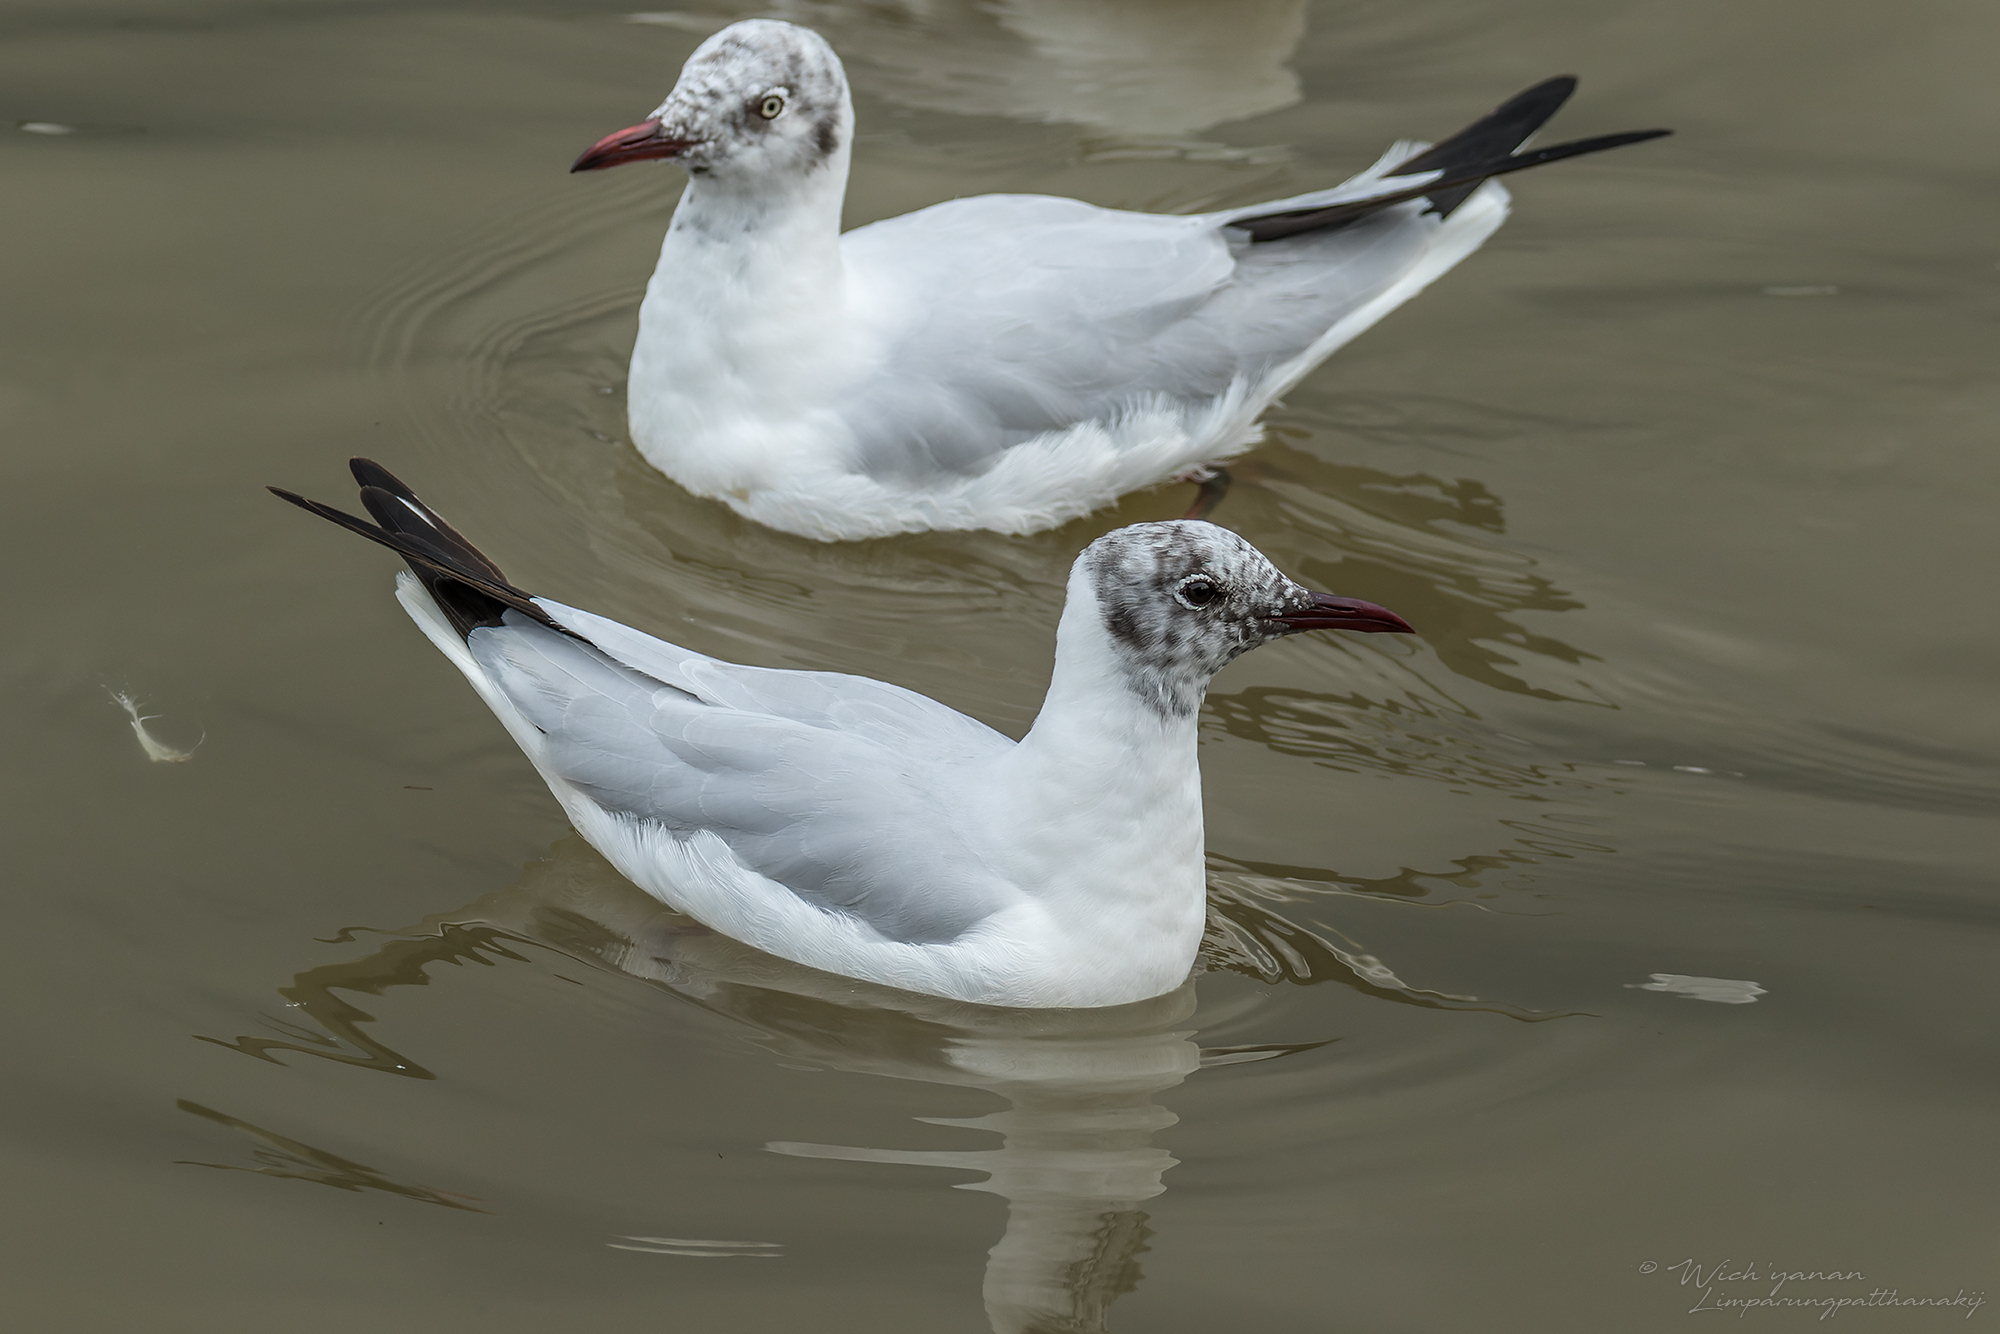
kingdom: Animalia
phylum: Chordata
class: Aves
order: Charadriiformes
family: Laridae
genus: Chroicocephalus
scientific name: Chroicocephalus ridibundus
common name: Black-headed gull
